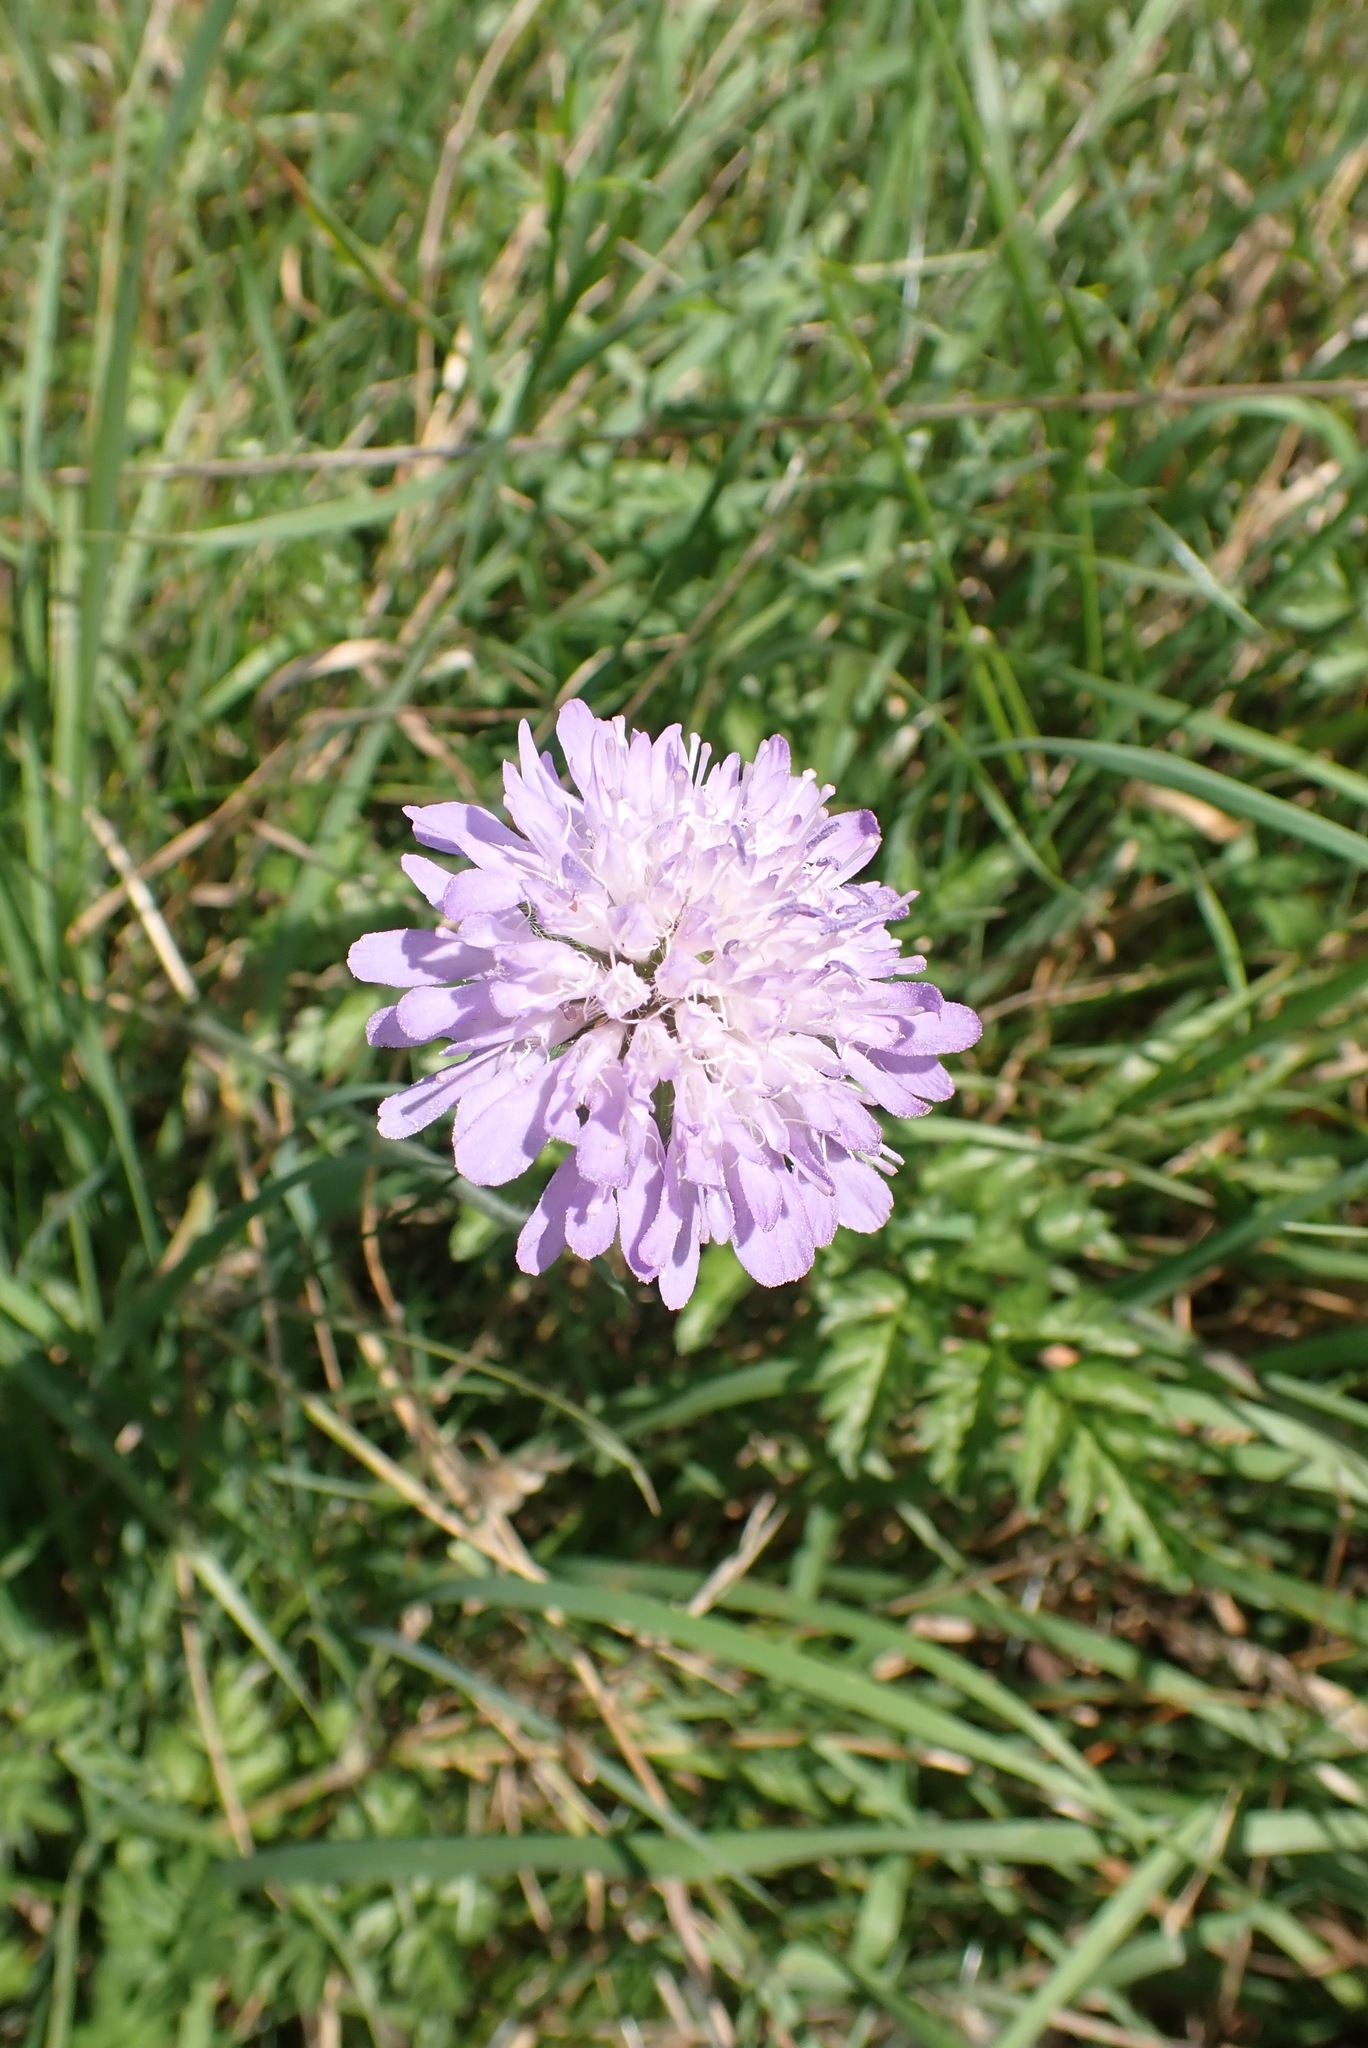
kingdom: Plantae
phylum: Tracheophyta
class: Magnoliopsida
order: Dipsacales
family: Caprifoliaceae
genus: Knautia
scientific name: Knautia arvensis
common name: Field scabiosa
